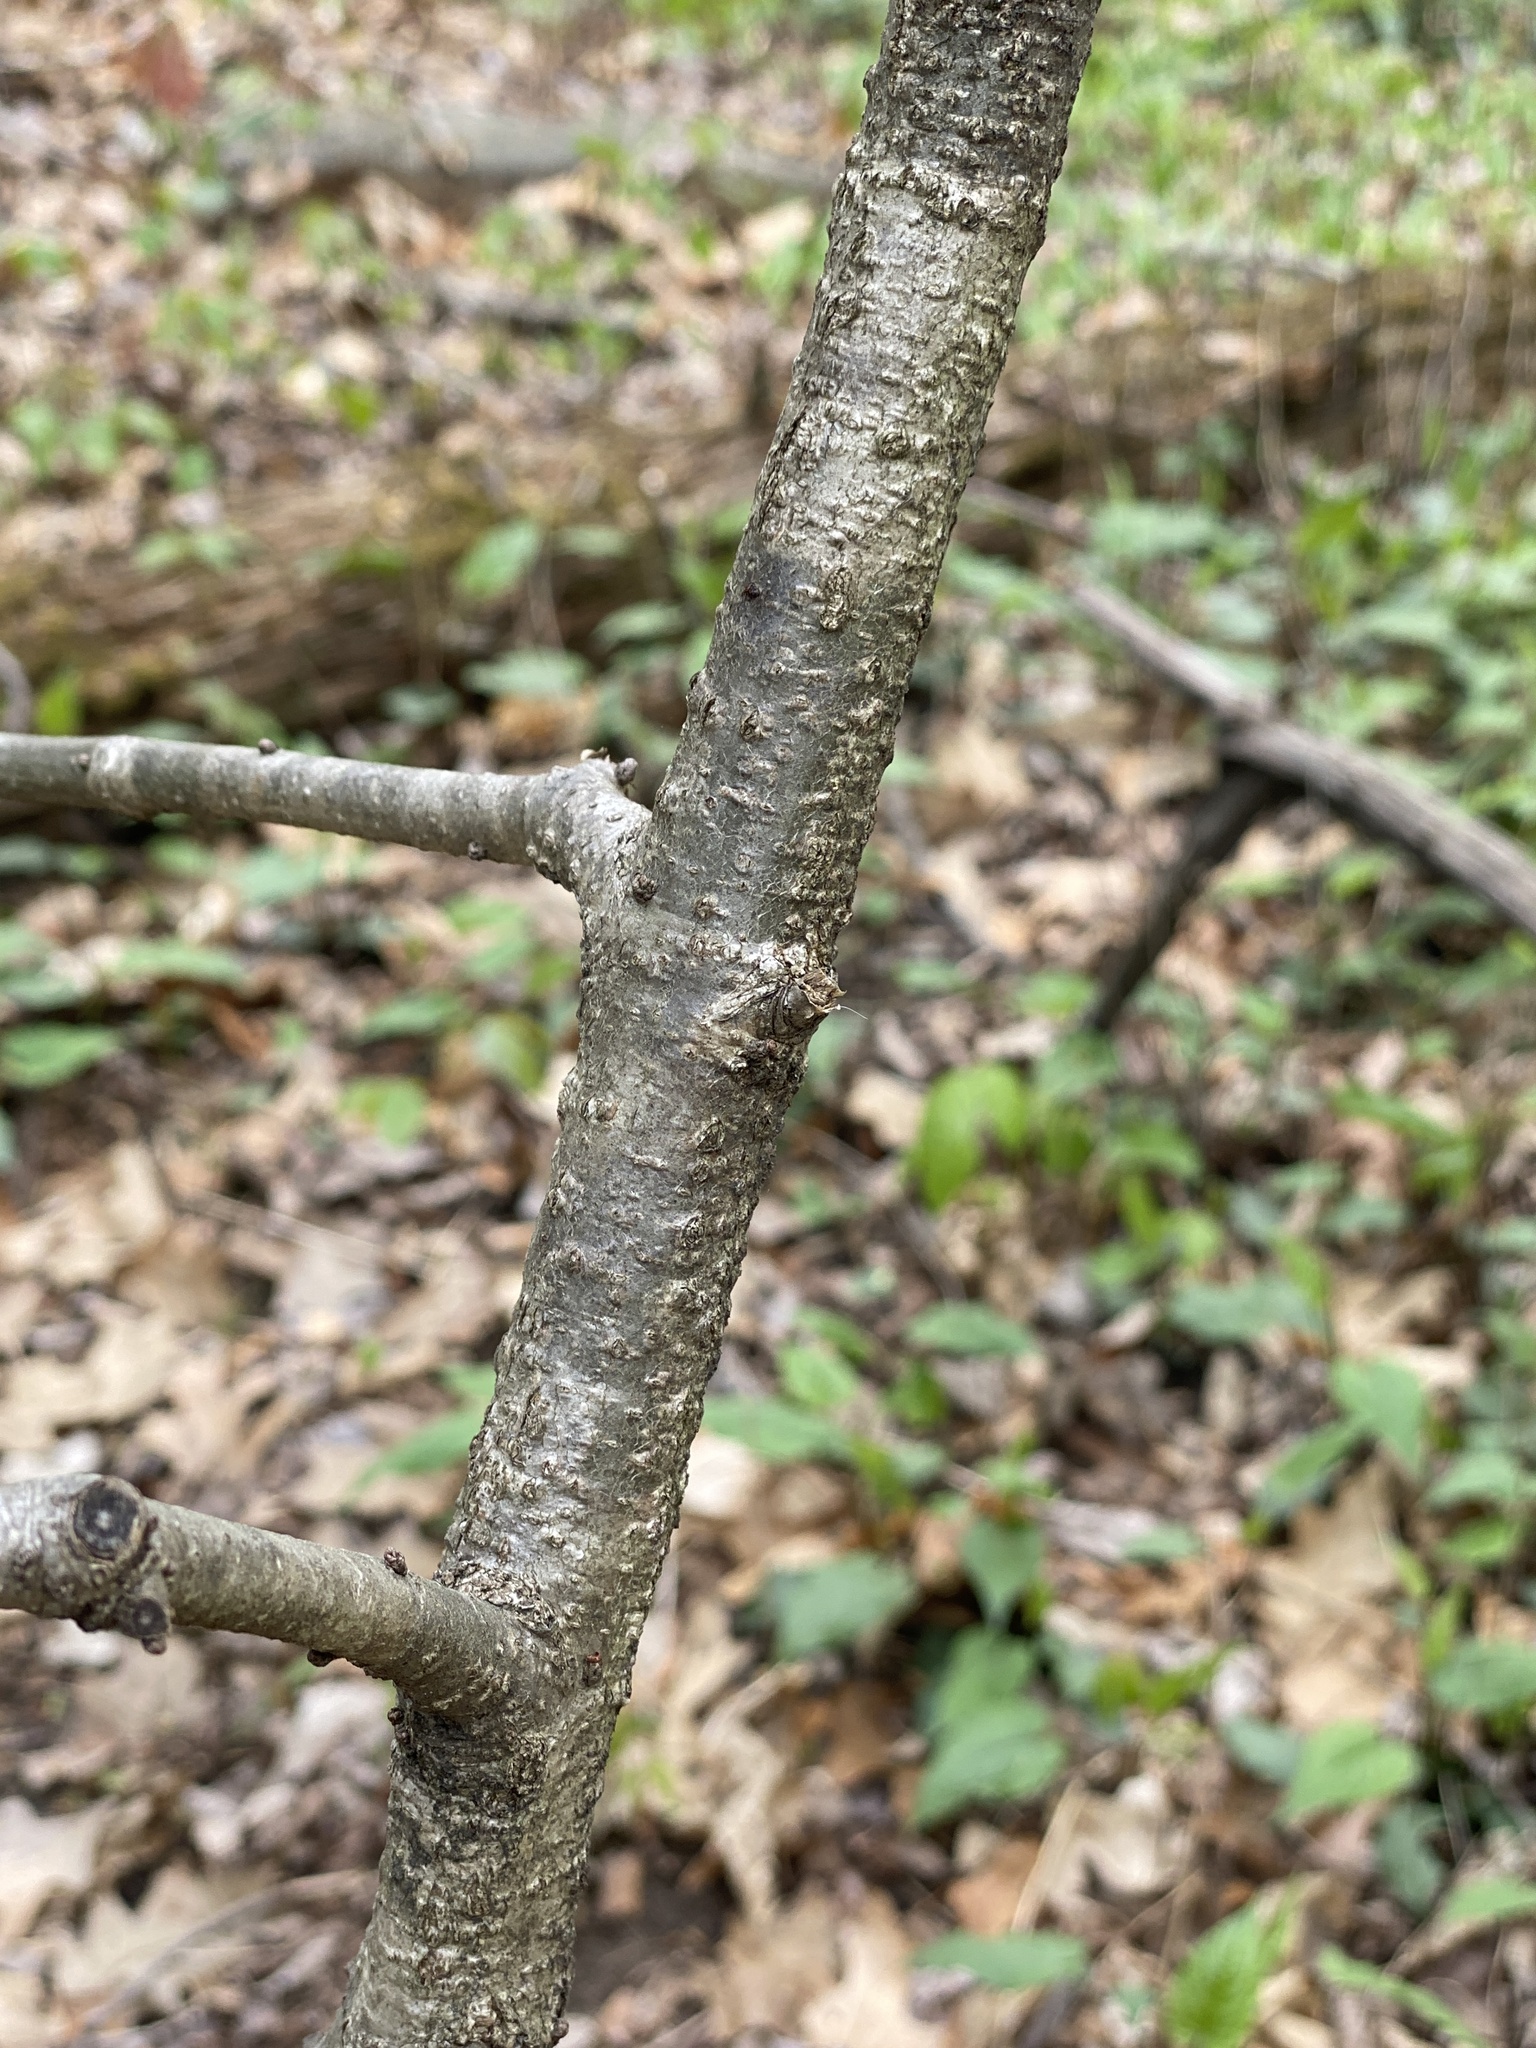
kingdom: Plantae
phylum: Tracheophyta
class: Magnoliopsida
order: Fagales
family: Fagaceae
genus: Quercus
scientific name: Quercus alba
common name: White oak
